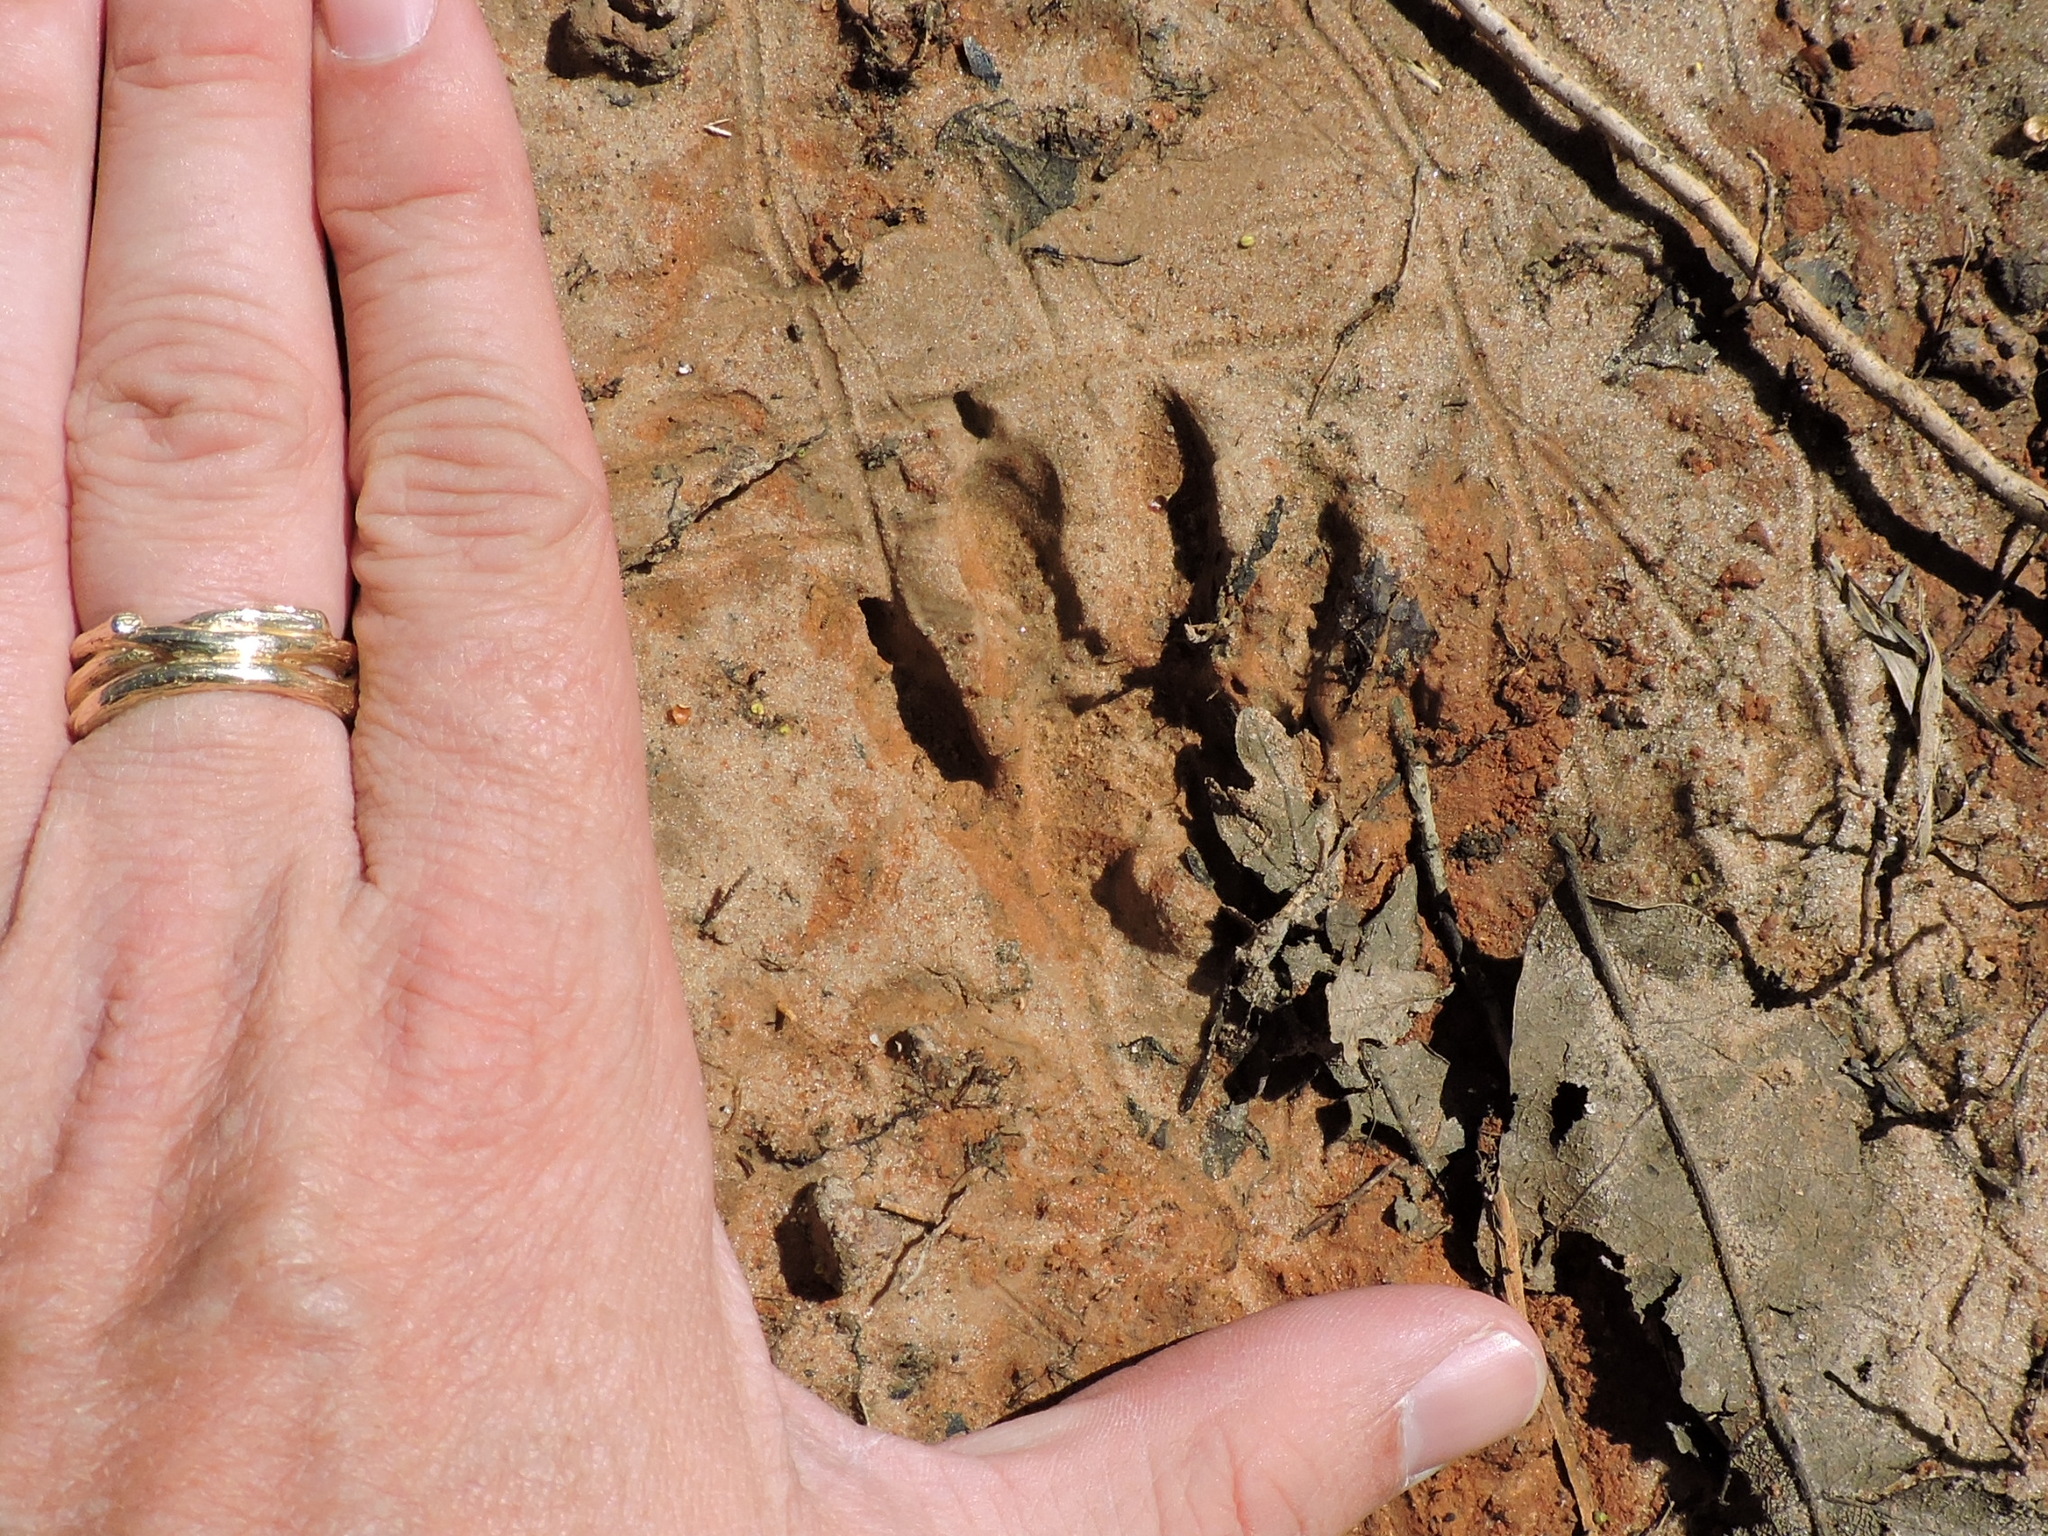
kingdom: Animalia
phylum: Chordata
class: Mammalia
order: Carnivora
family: Procyonidae
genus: Procyon
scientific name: Procyon lotor
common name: Raccoon
